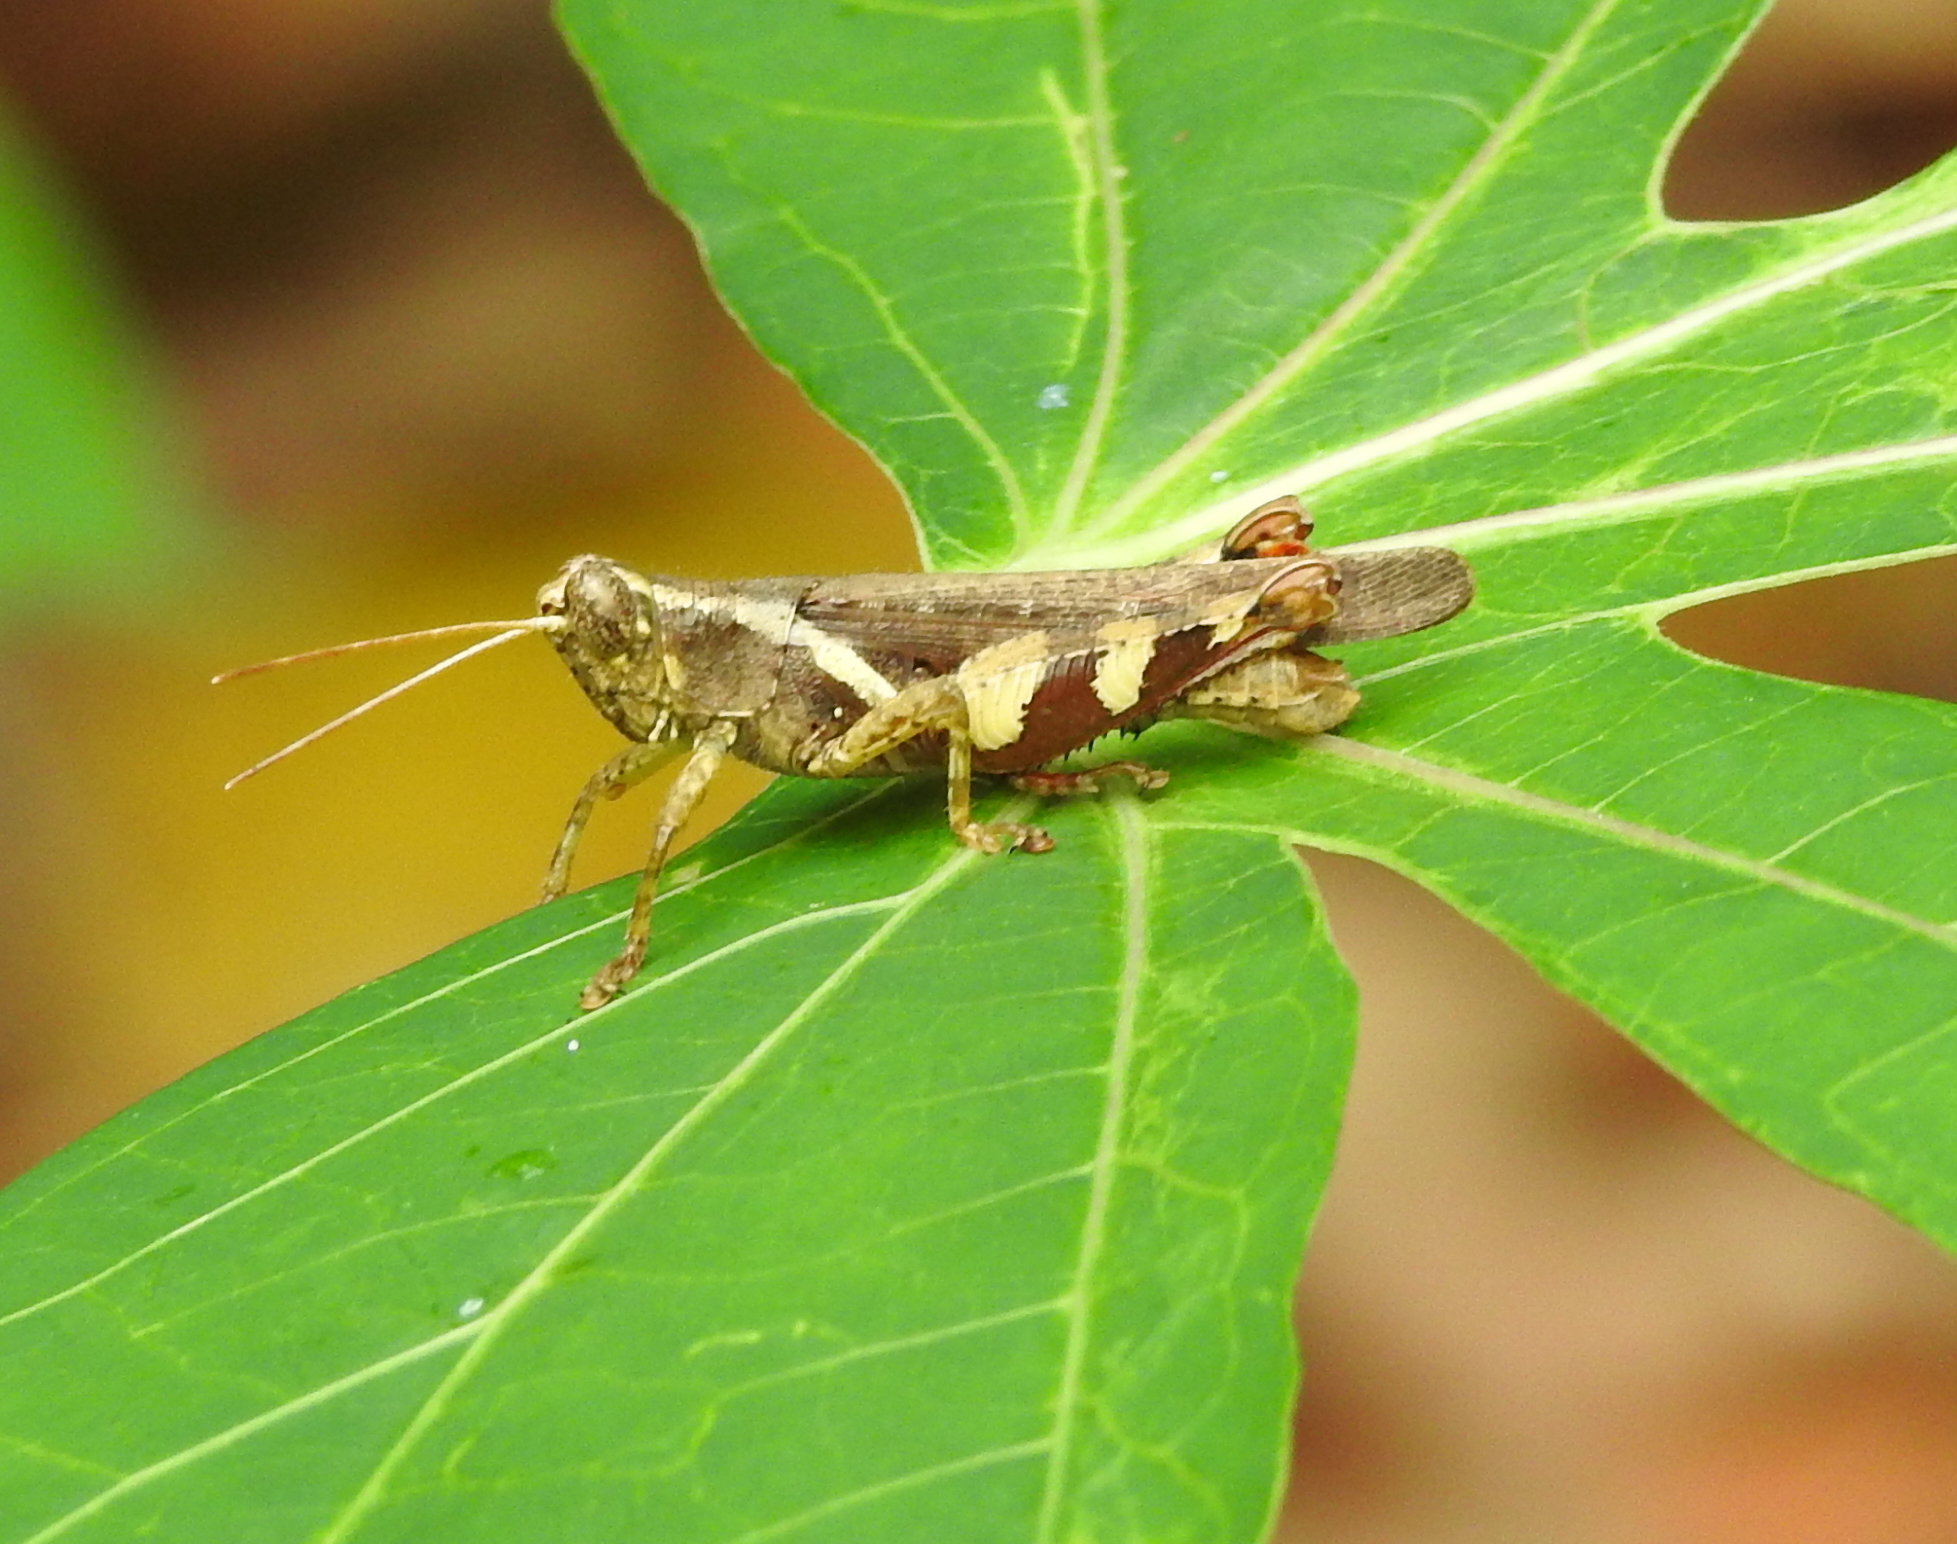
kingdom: Animalia
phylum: Arthropoda
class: Insecta
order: Orthoptera
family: Acrididae
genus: Xenocatantops
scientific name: Xenocatantops humile
